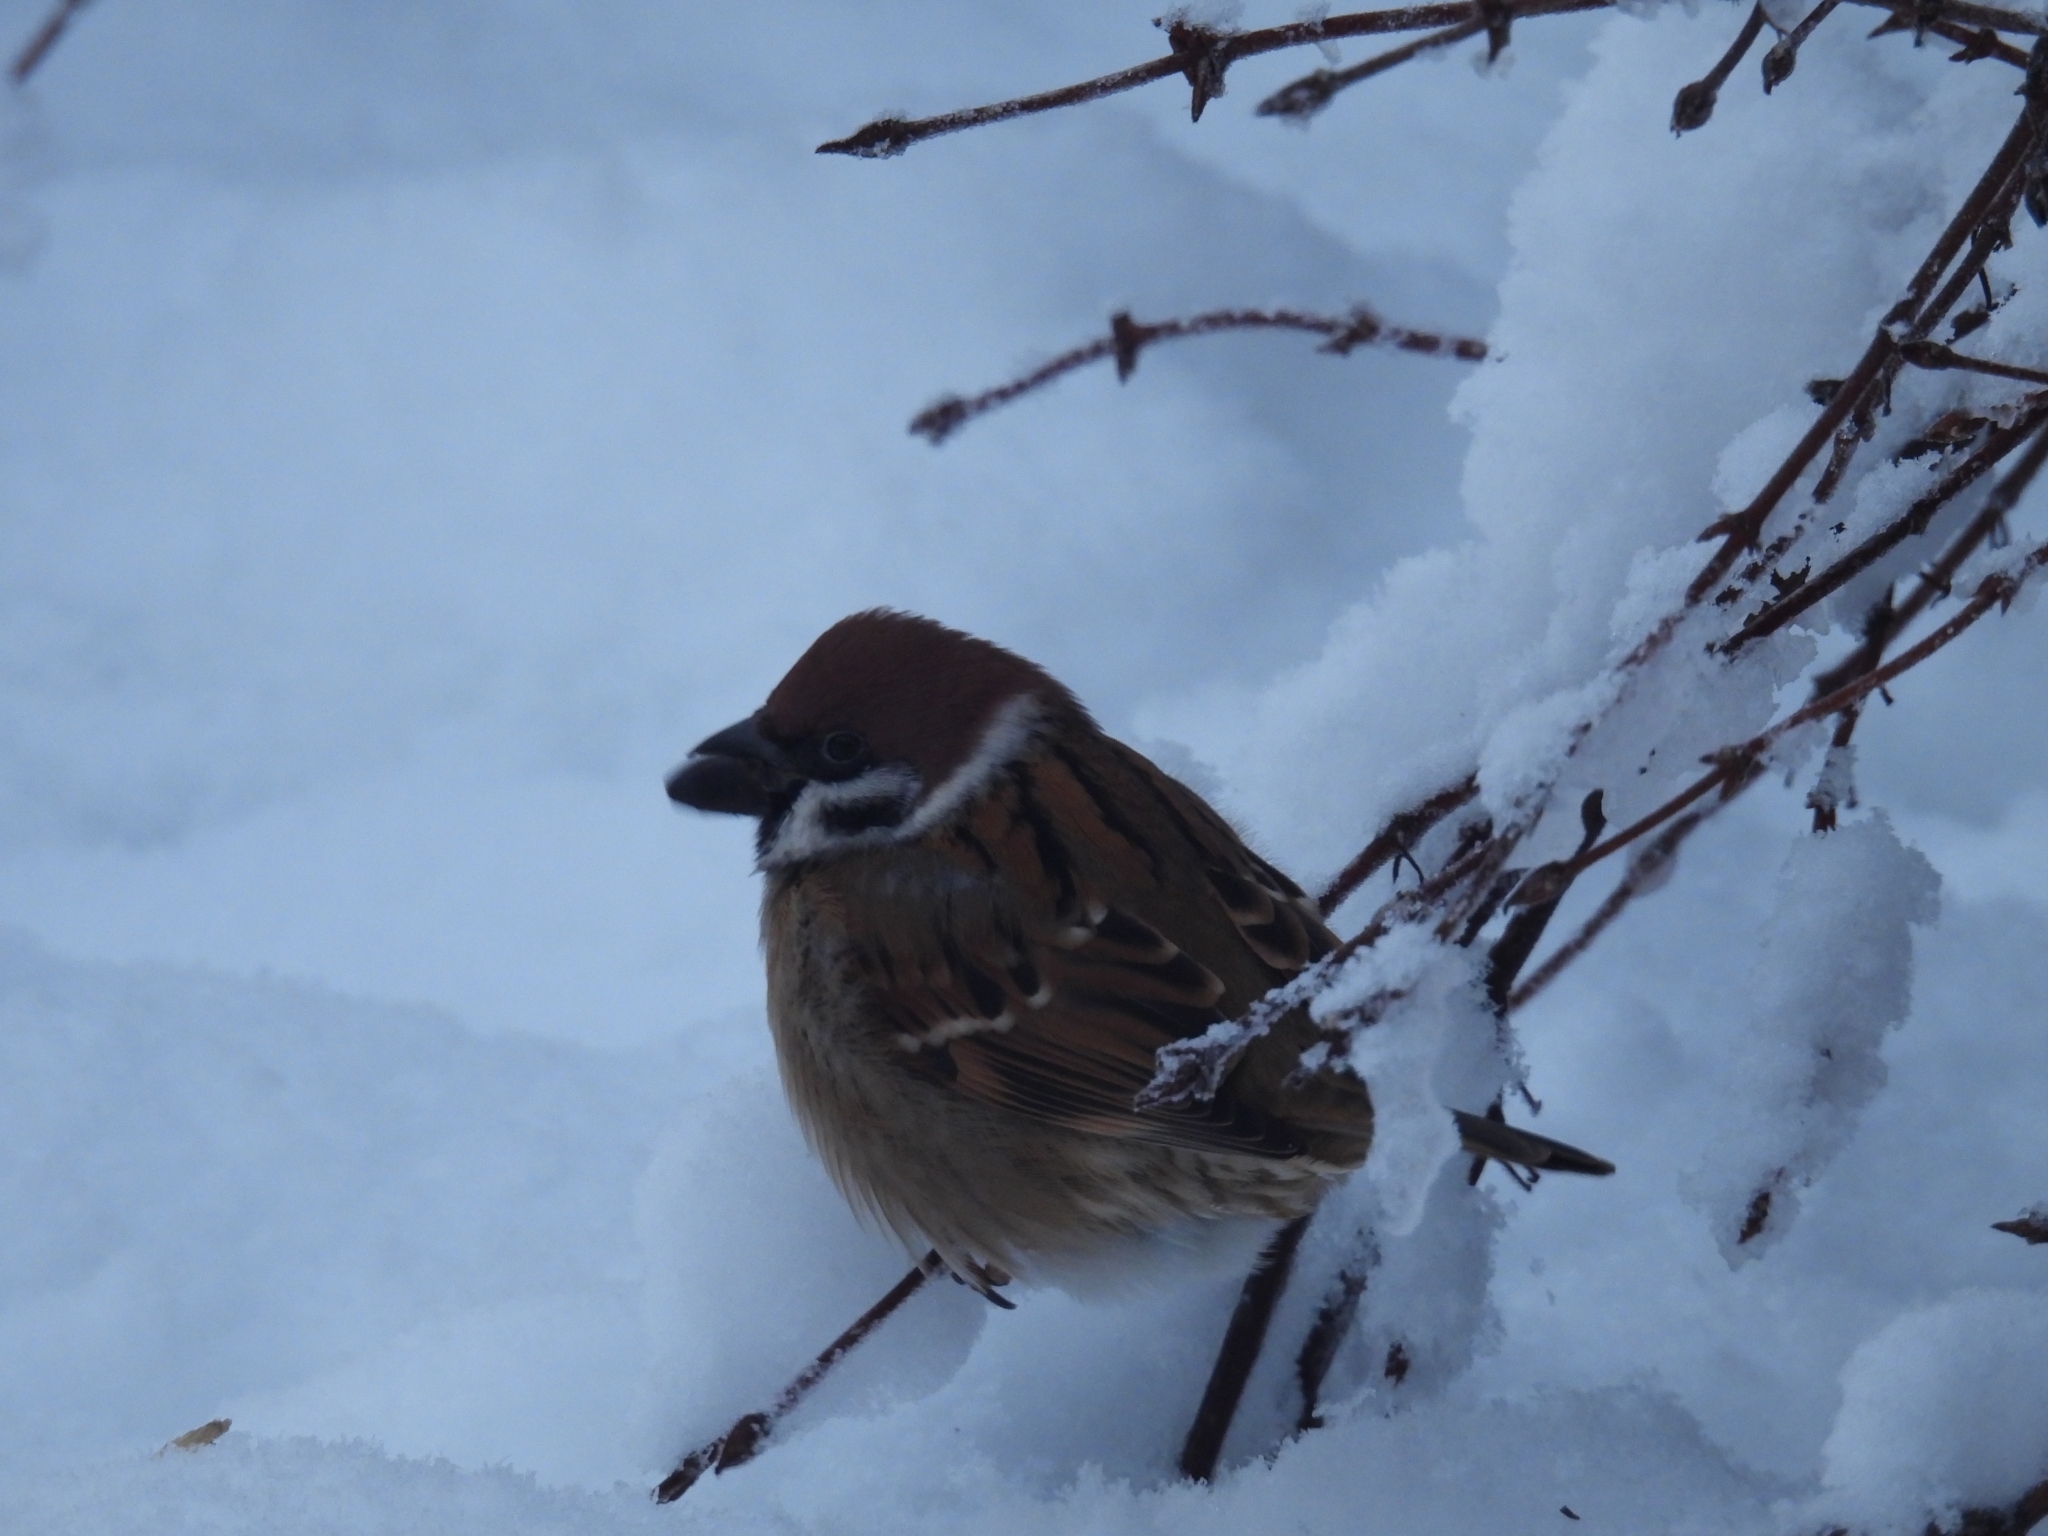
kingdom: Animalia
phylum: Chordata
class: Aves
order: Passeriformes
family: Passeridae
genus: Passer
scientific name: Passer montanus
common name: Eurasian tree sparrow
